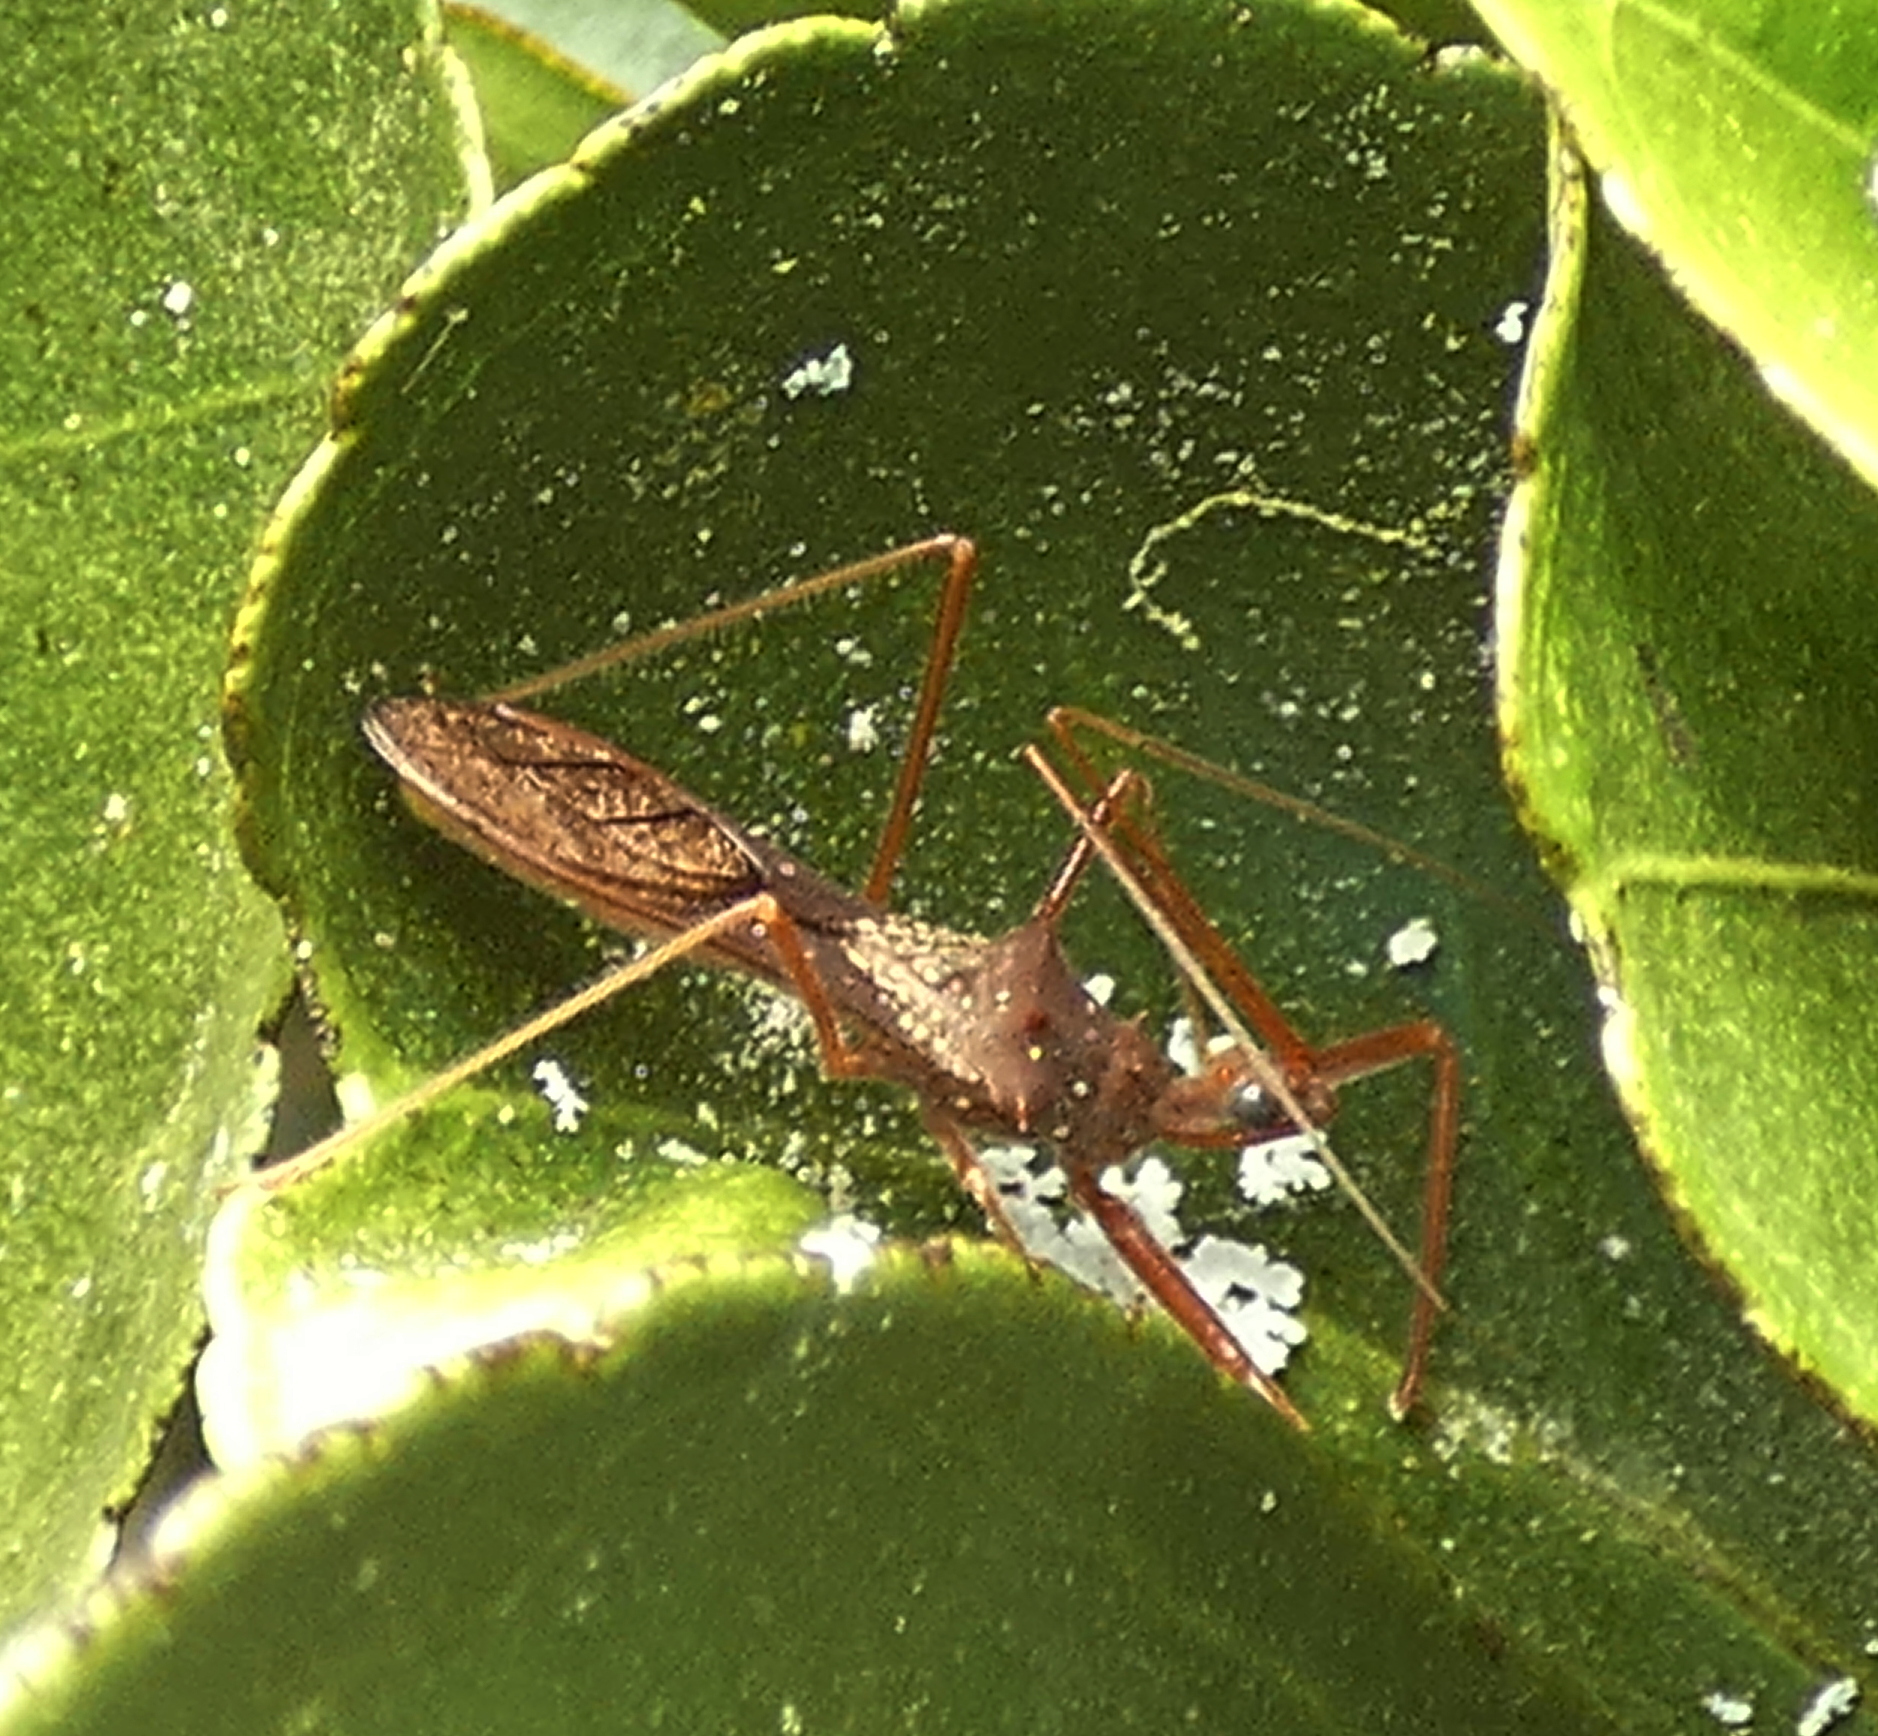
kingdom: Animalia
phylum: Arthropoda
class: Insecta
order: Hemiptera
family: Reduviidae
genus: Heza
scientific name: Heza binotata
